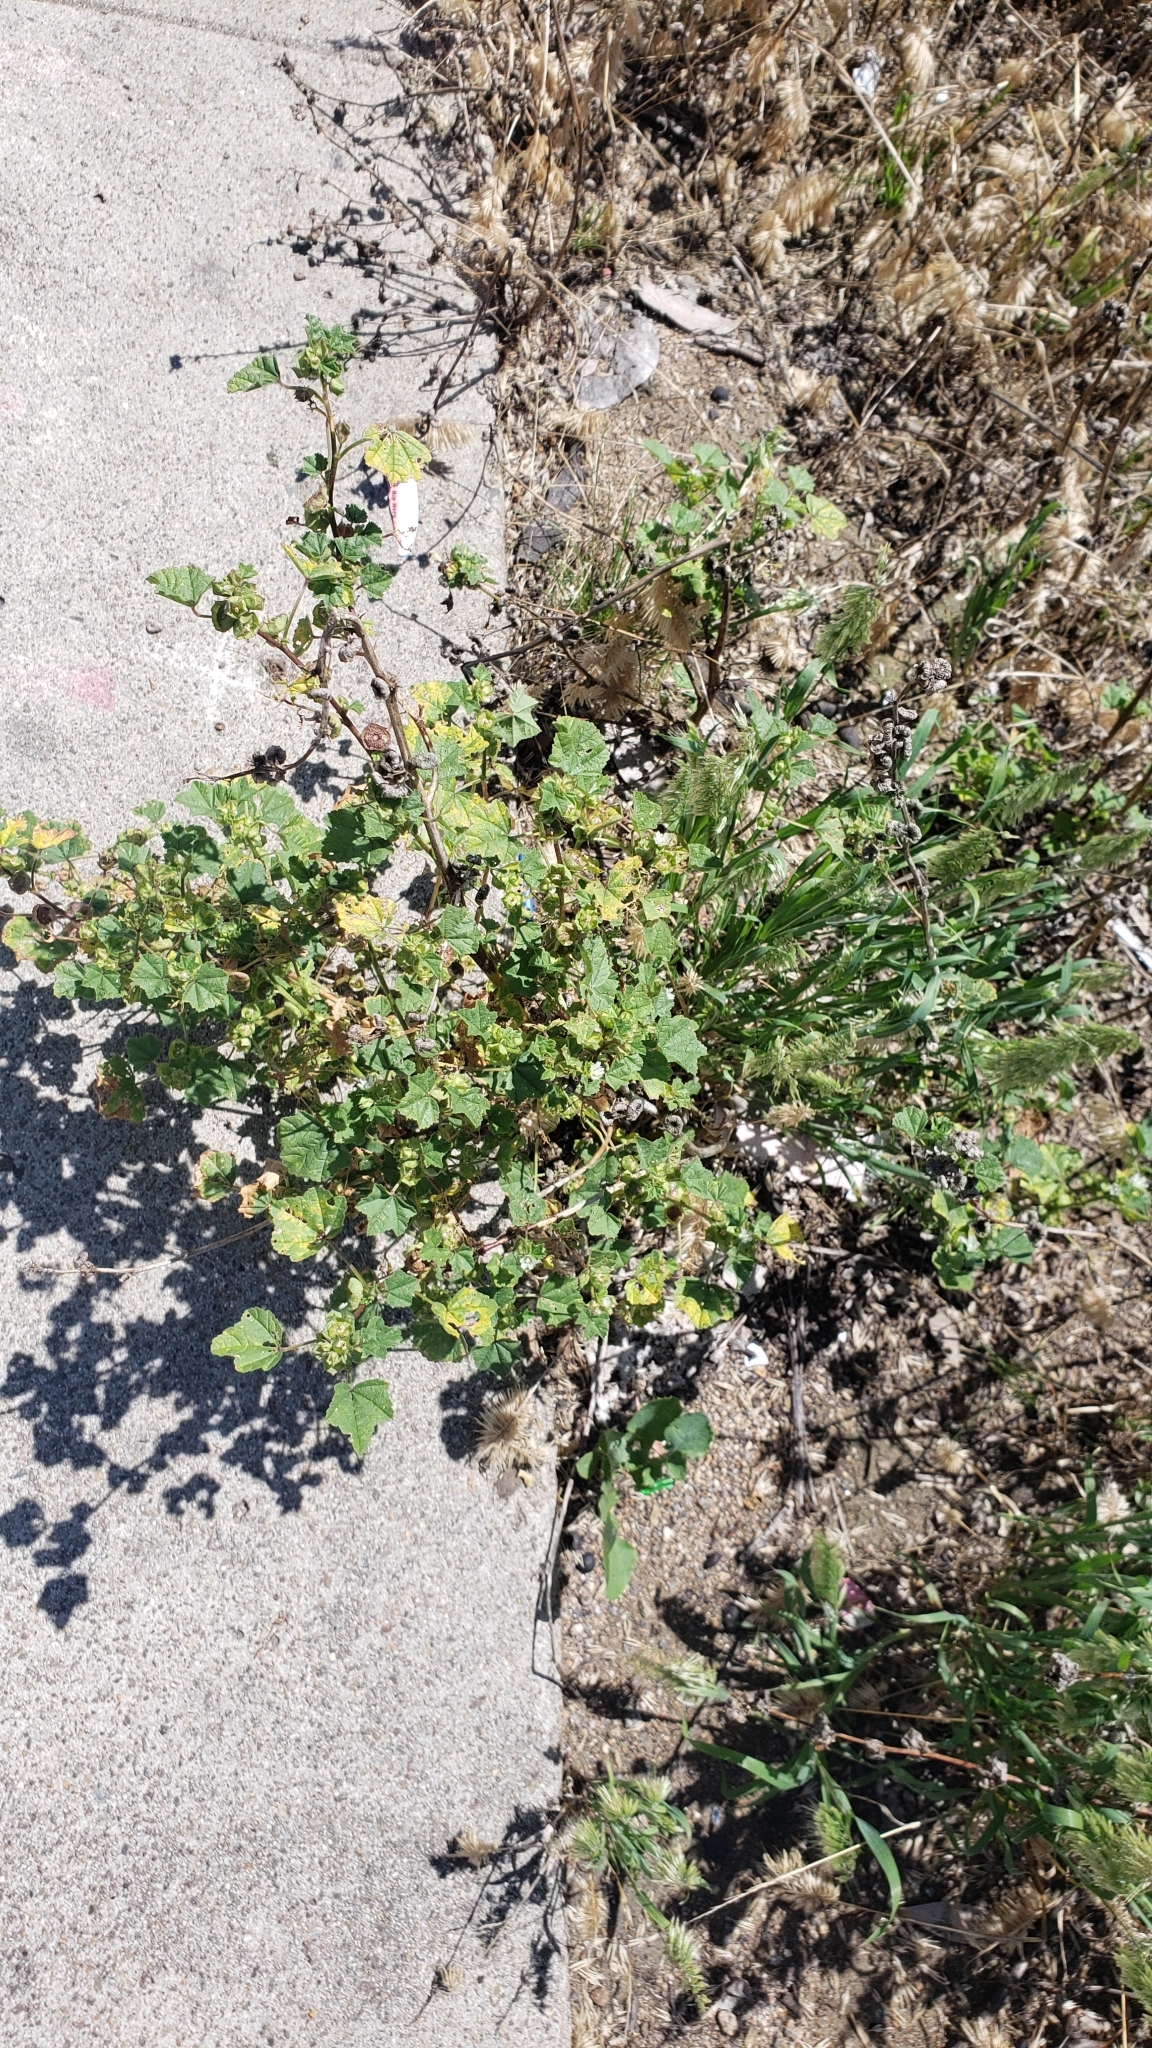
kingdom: Plantae
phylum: Tracheophyta
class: Magnoliopsida
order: Malvales
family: Malvaceae
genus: Malva
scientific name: Malva parviflora
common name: Least mallow
